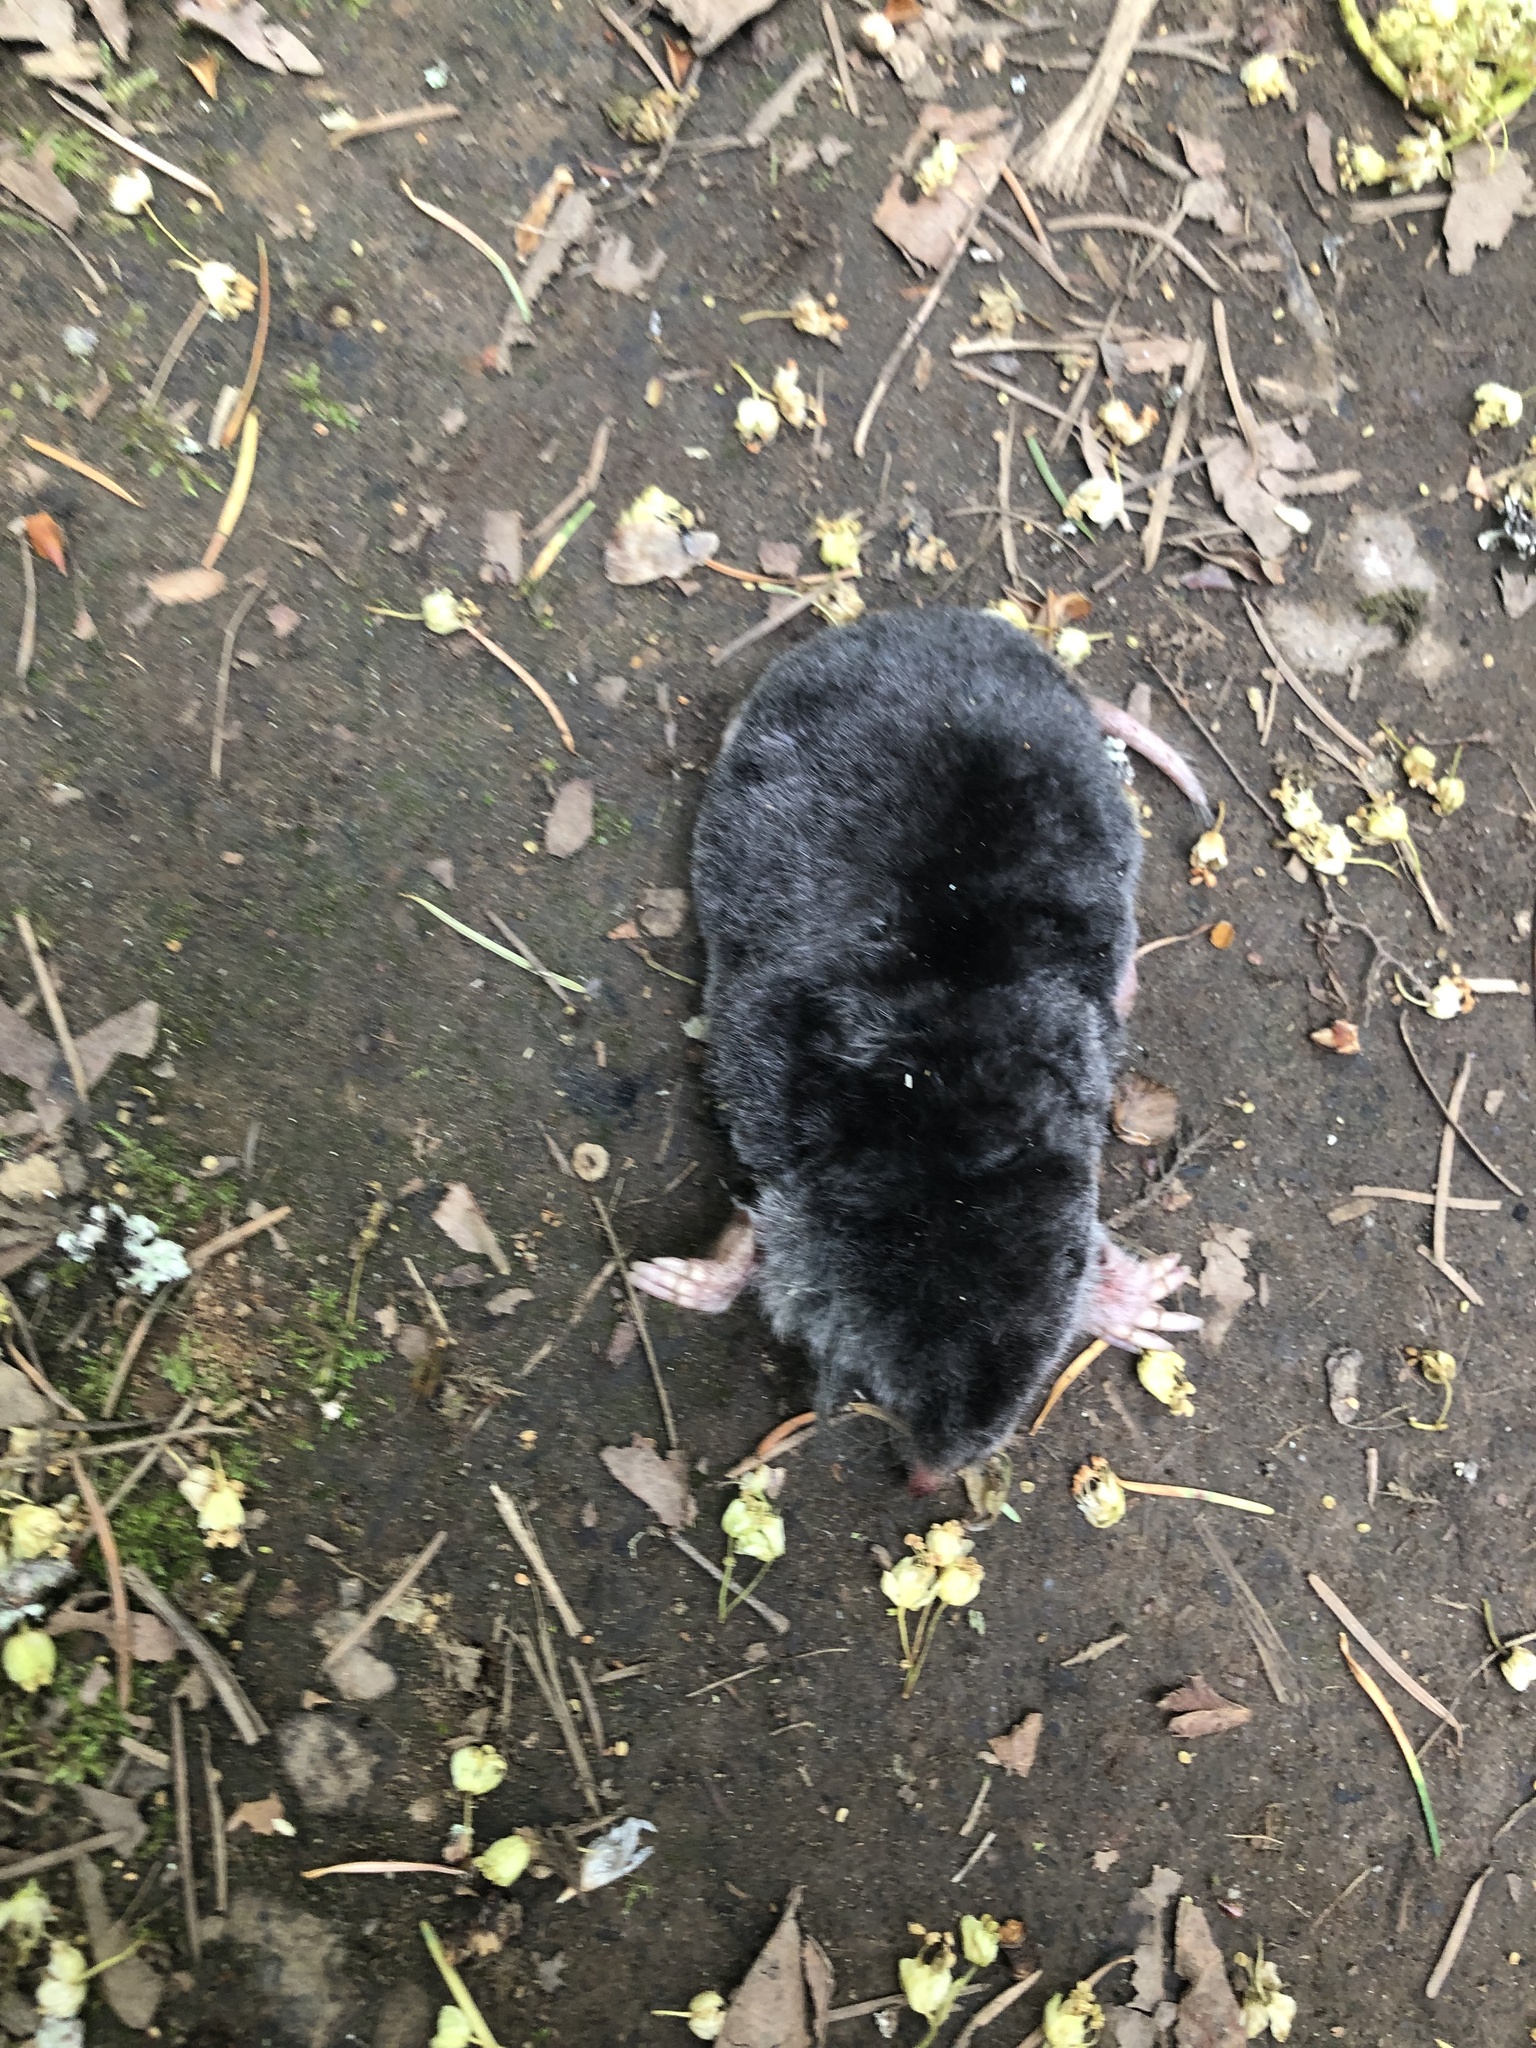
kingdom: Animalia
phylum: Chordata
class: Mammalia
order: Soricomorpha
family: Talpidae
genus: Scapanus
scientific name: Scapanus orarius
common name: Coast mole
